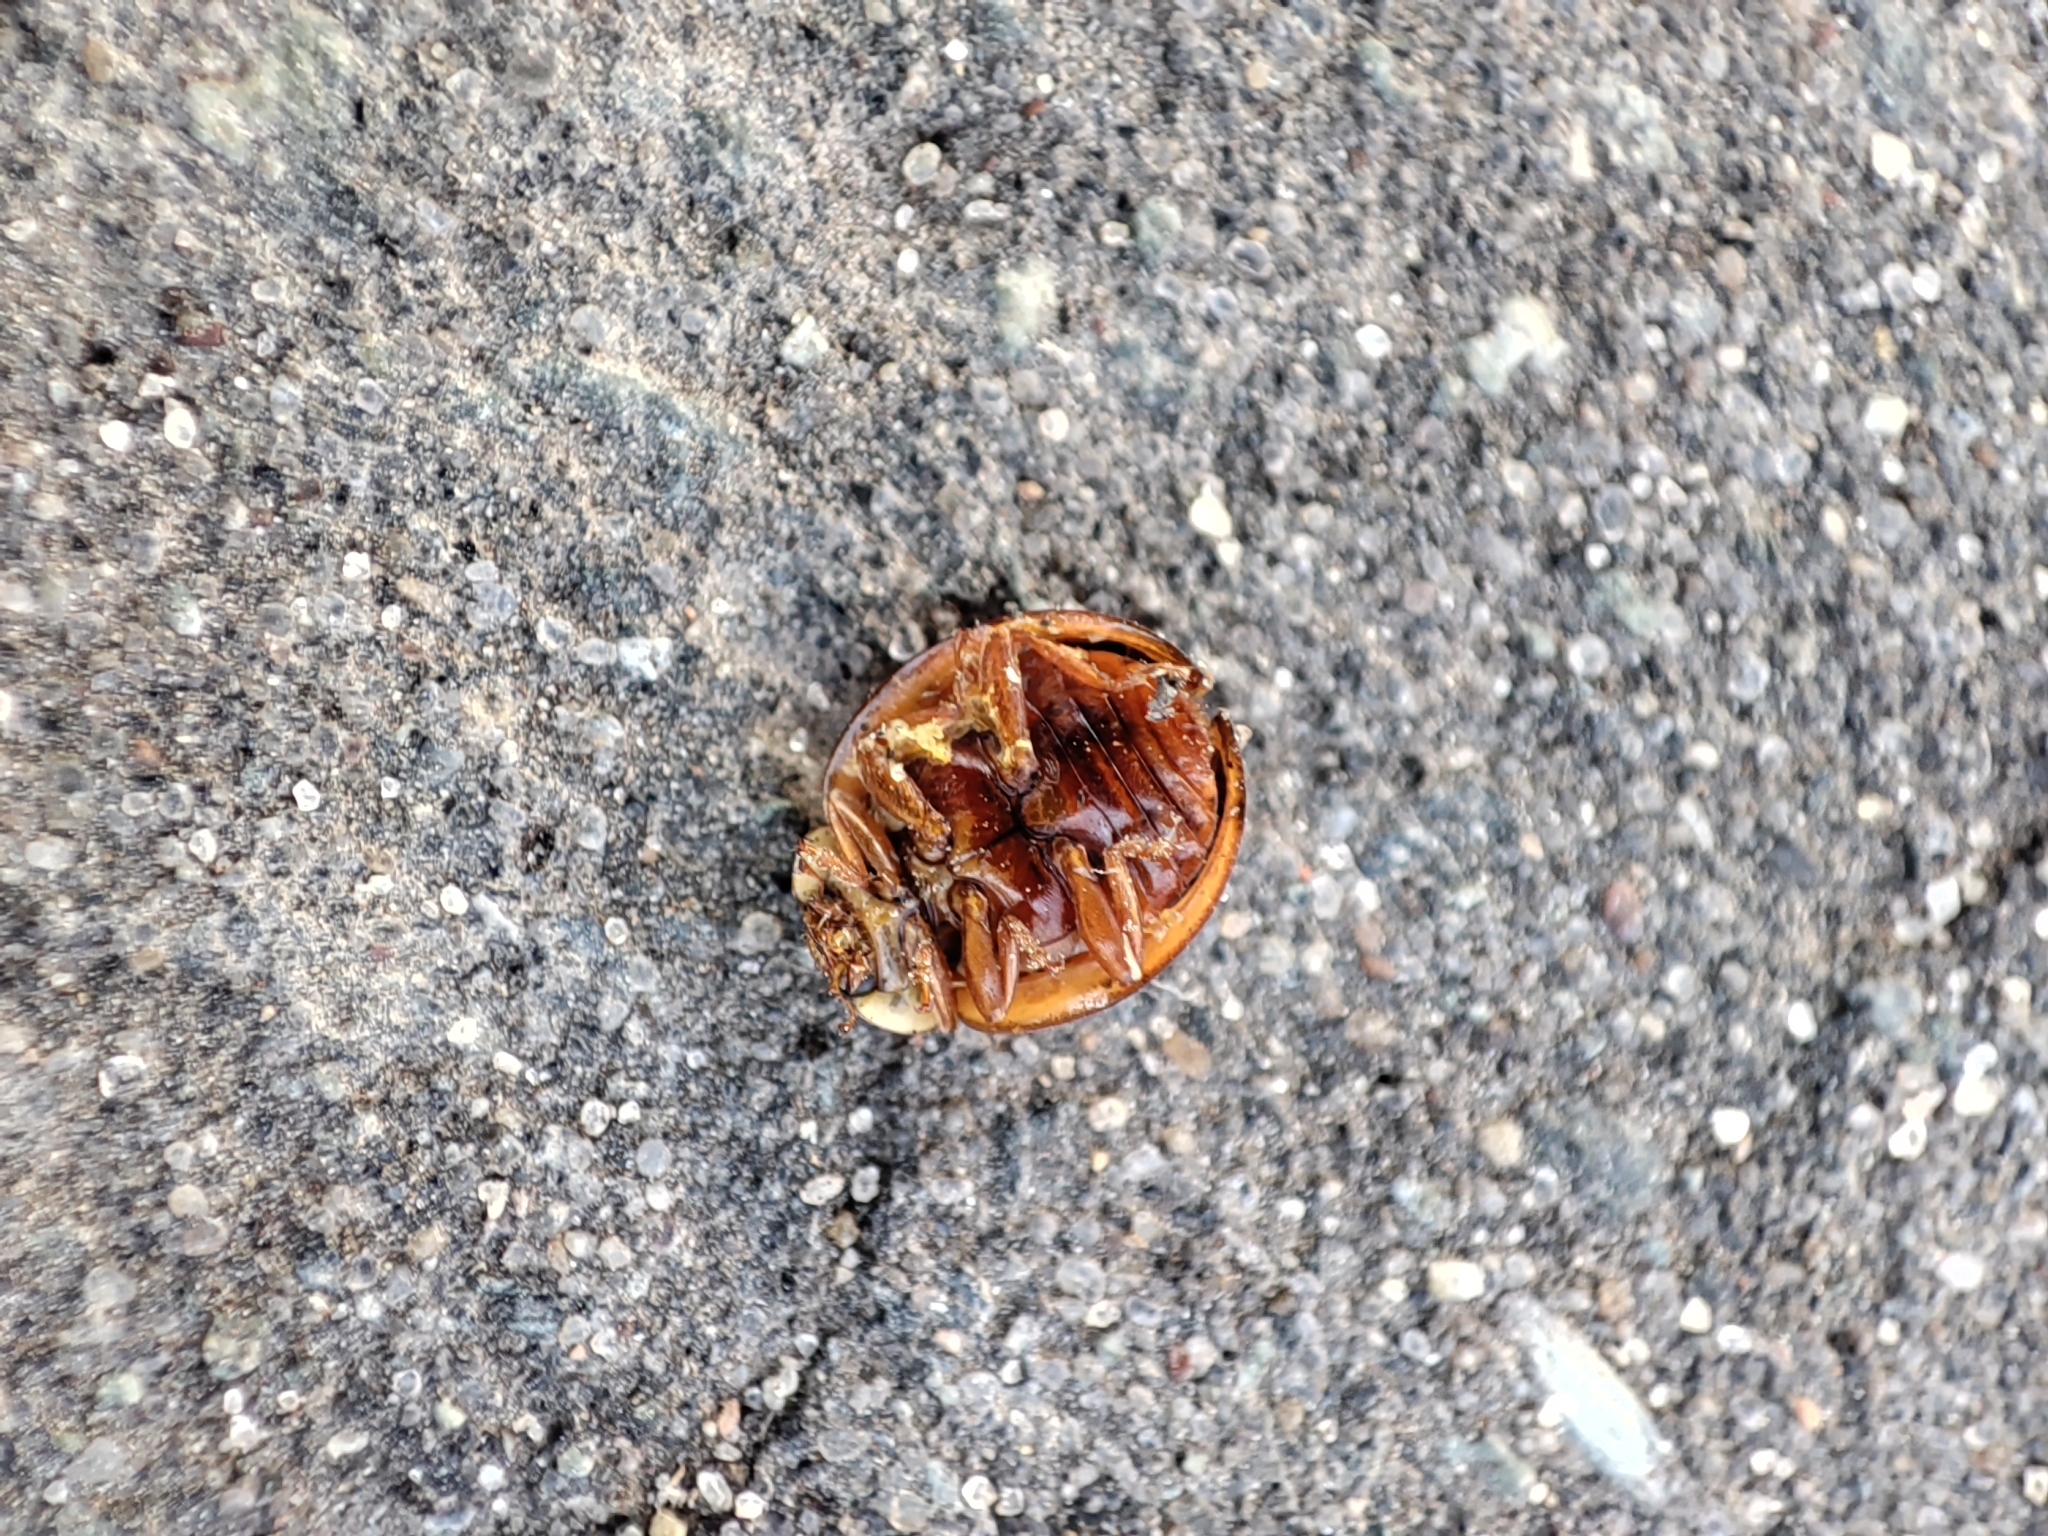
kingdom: Animalia
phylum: Arthropoda
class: Insecta
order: Coleoptera
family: Coccinellidae
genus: Harmonia
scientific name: Harmonia axyridis
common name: Harlequin ladybird
